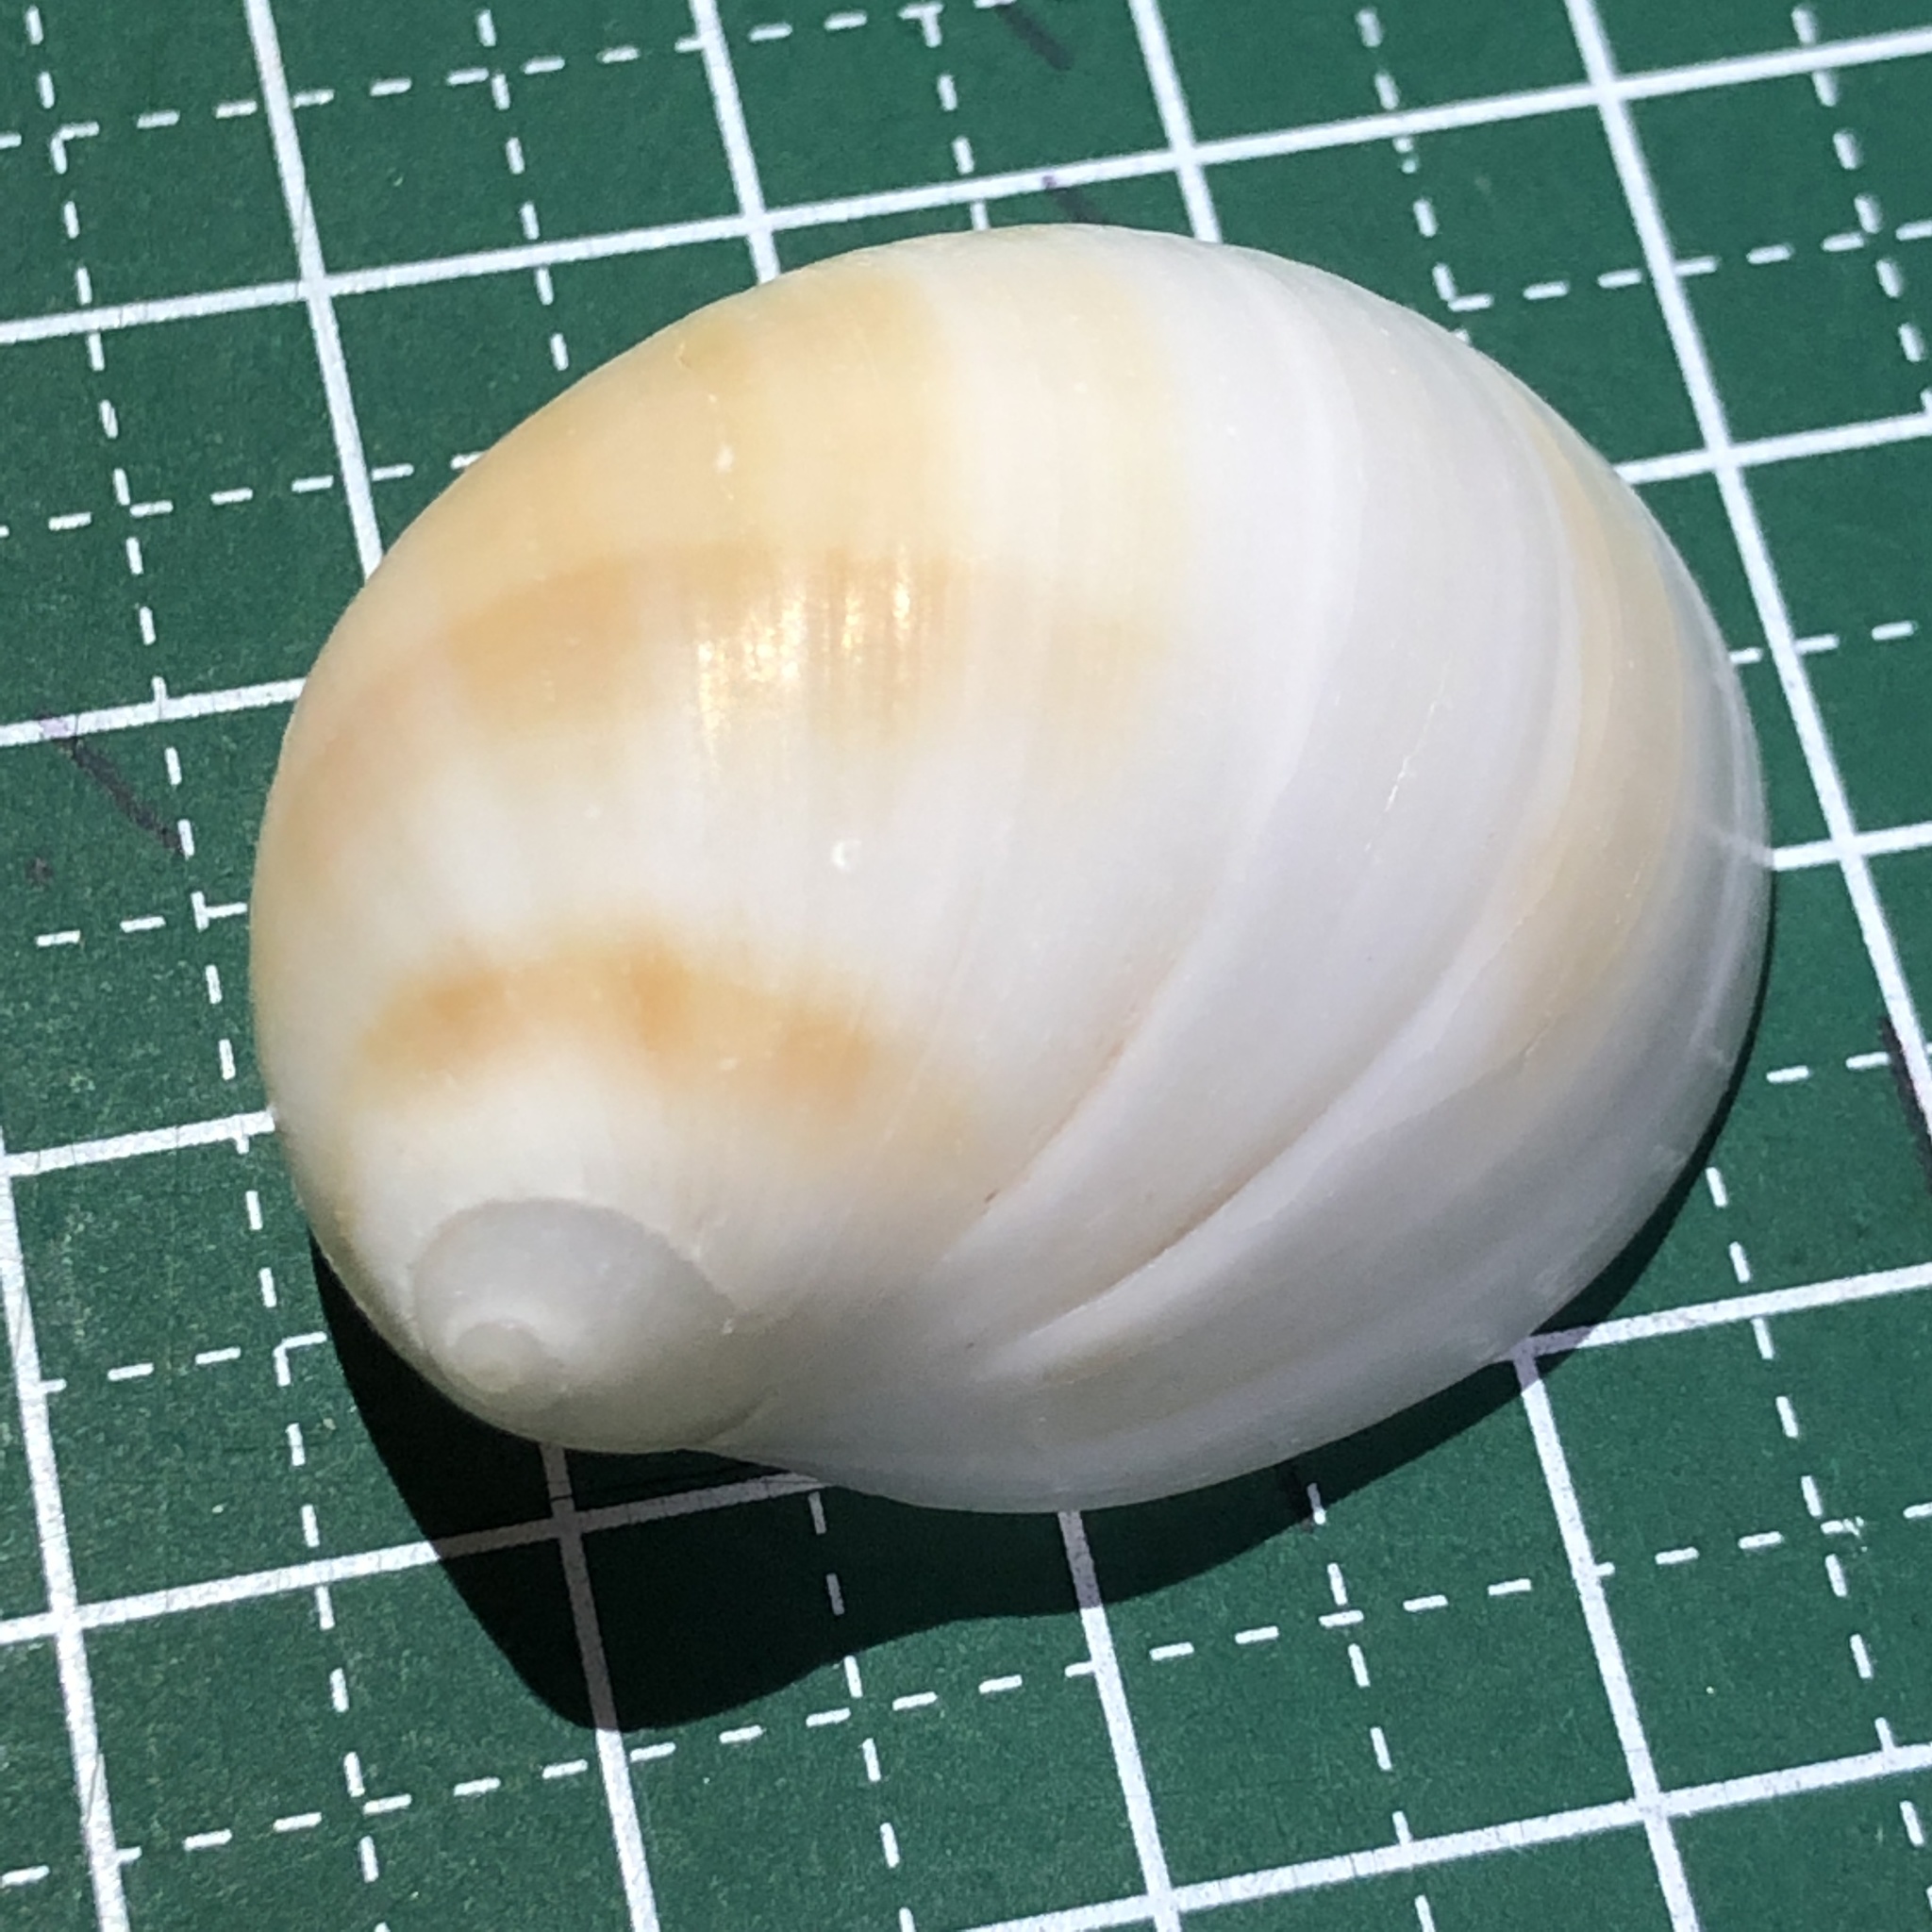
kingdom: Animalia
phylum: Mollusca
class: Gastropoda
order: Littorinimorpha
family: Naticidae
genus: Mammilla
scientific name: Mammilla mammata
